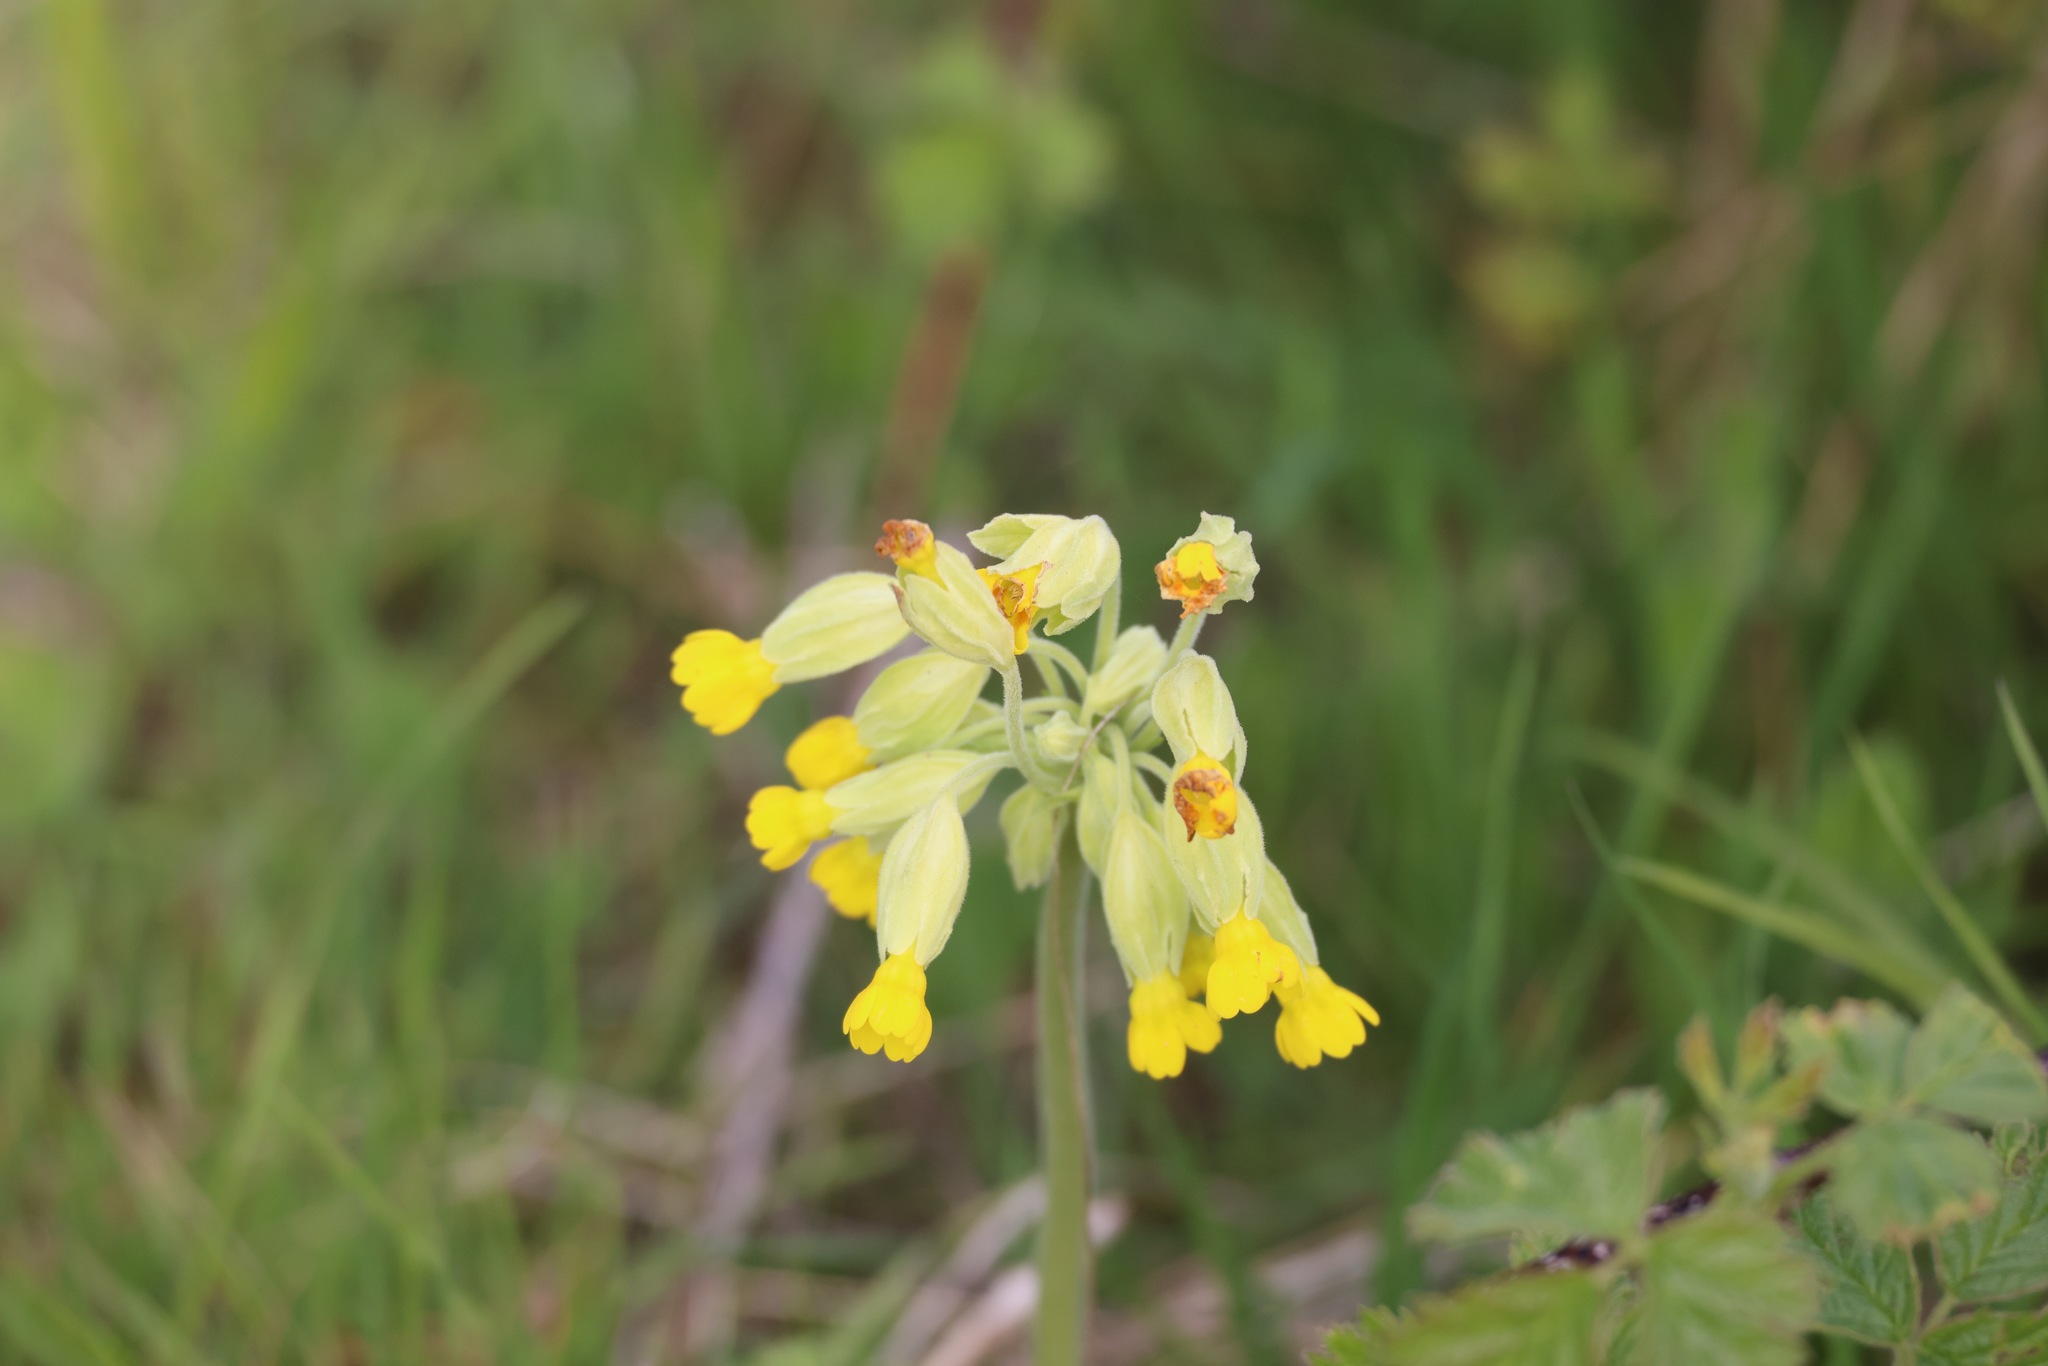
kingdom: Plantae
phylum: Tracheophyta
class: Magnoliopsida
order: Ericales
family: Primulaceae
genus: Primula
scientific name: Primula veris
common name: Cowslip
